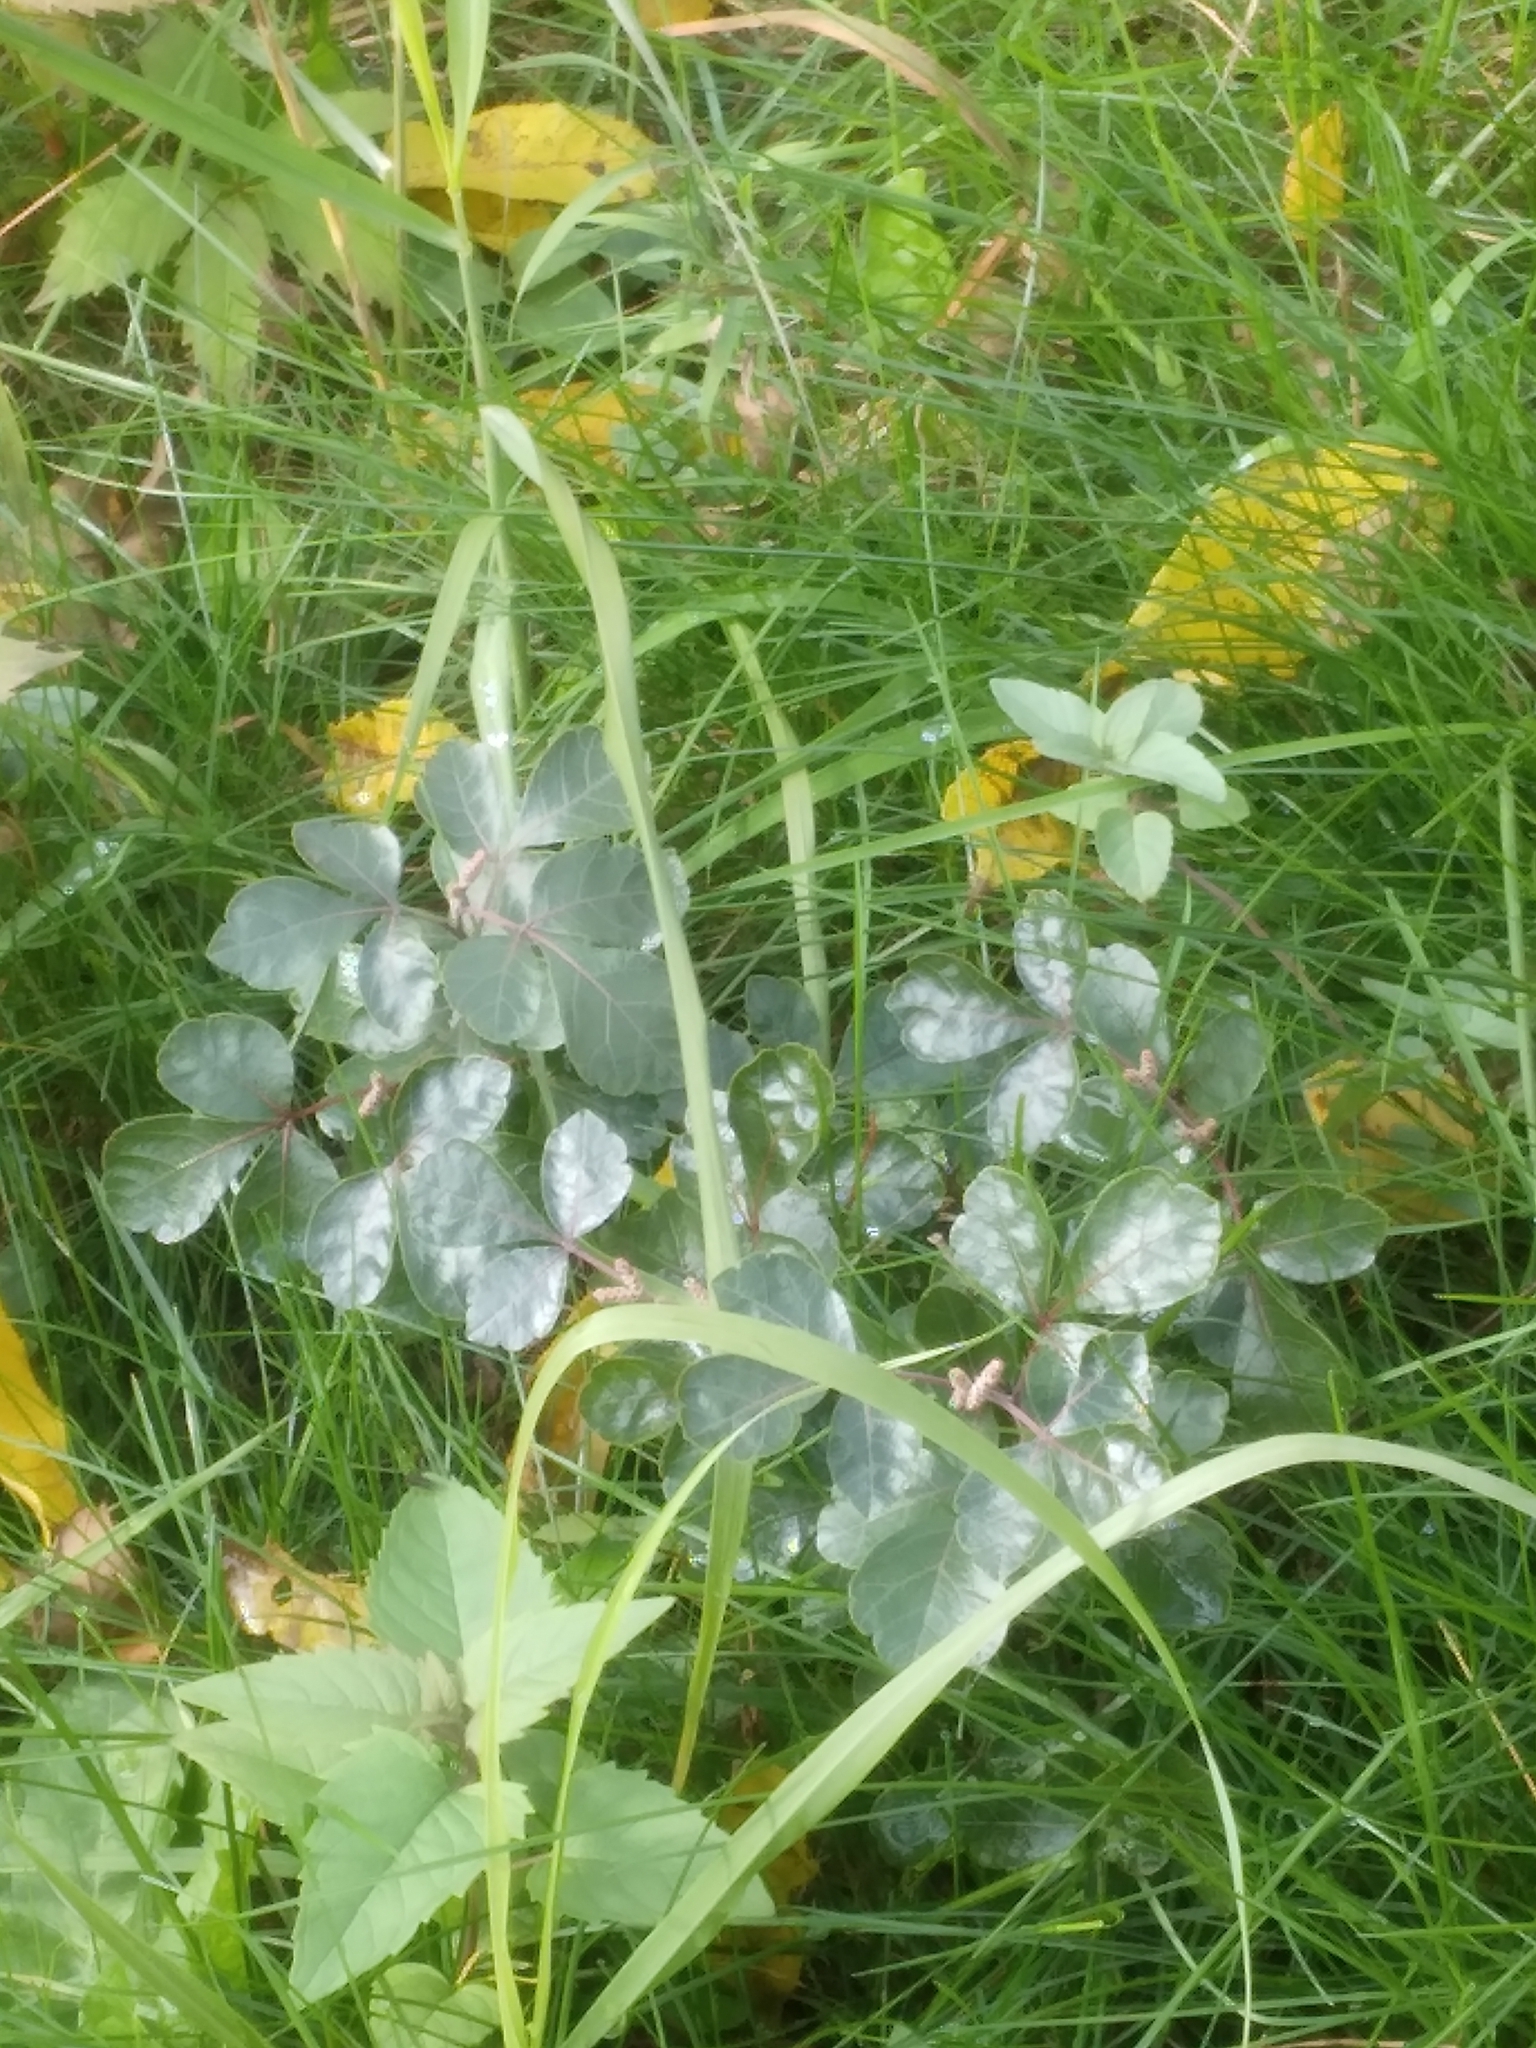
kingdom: Plantae
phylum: Tracheophyta
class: Magnoliopsida
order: Sapindales
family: Anacardiaceae
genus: Rhus
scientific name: Rhus aromatica
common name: Aromatic sumac
